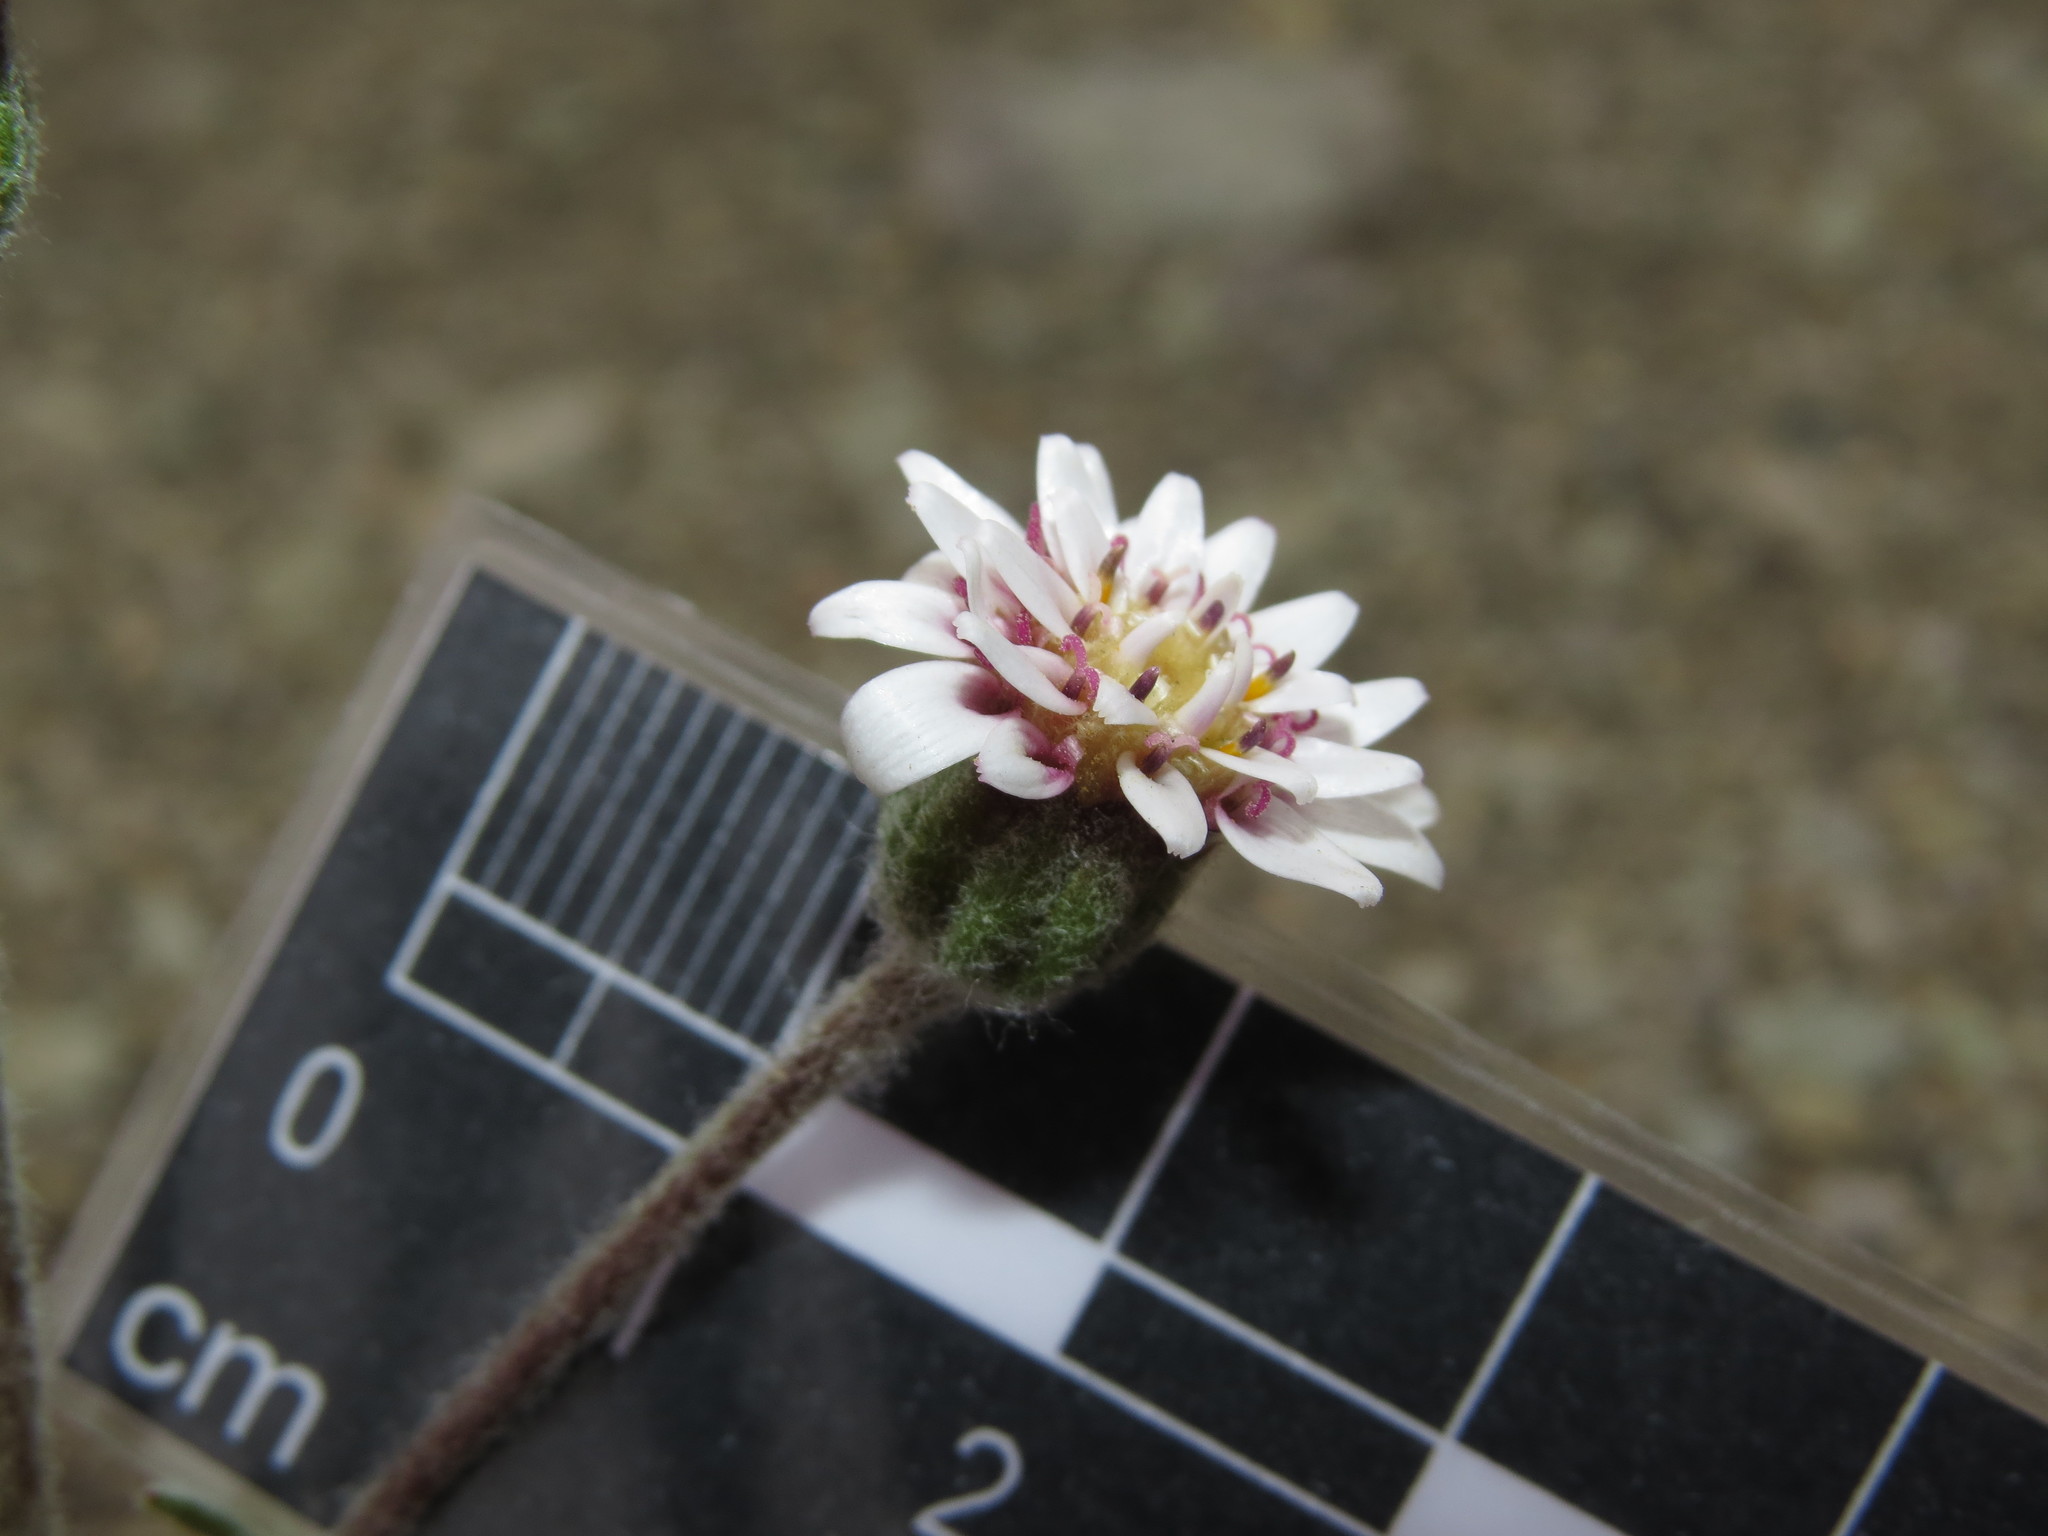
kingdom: Plantae
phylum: Tracheophyta
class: Magnoliopsida
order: Asterales
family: Asteraceae
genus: Leucheria
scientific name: Leucheria millefolium
